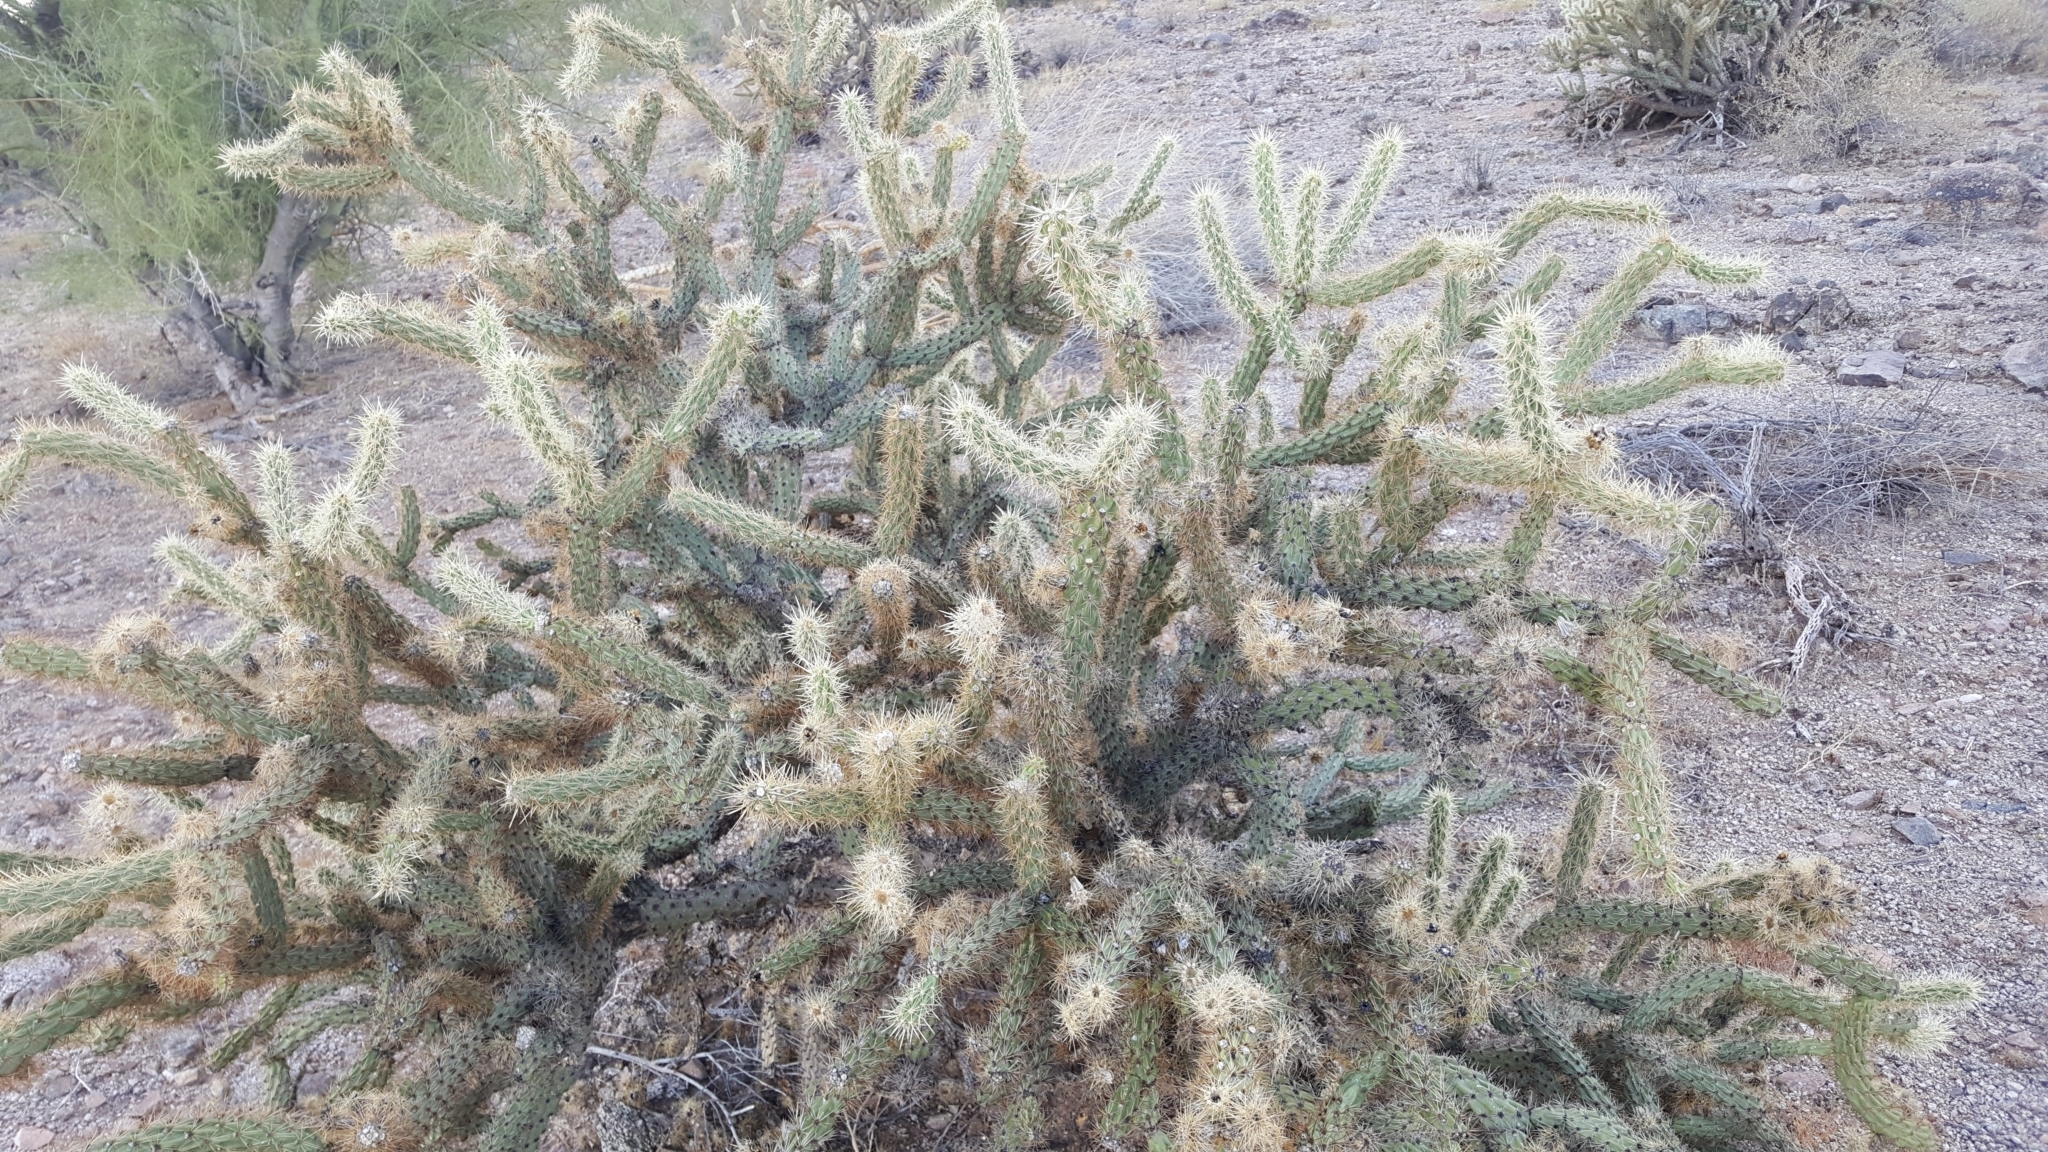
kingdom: Plantae
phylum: Tracheophyta
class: Magnoliopsida
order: Caryophyllales
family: Cactaceae
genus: Cylindropuntia
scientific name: Cylindropuntia acanthocarpa
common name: Buckhorn cholla
